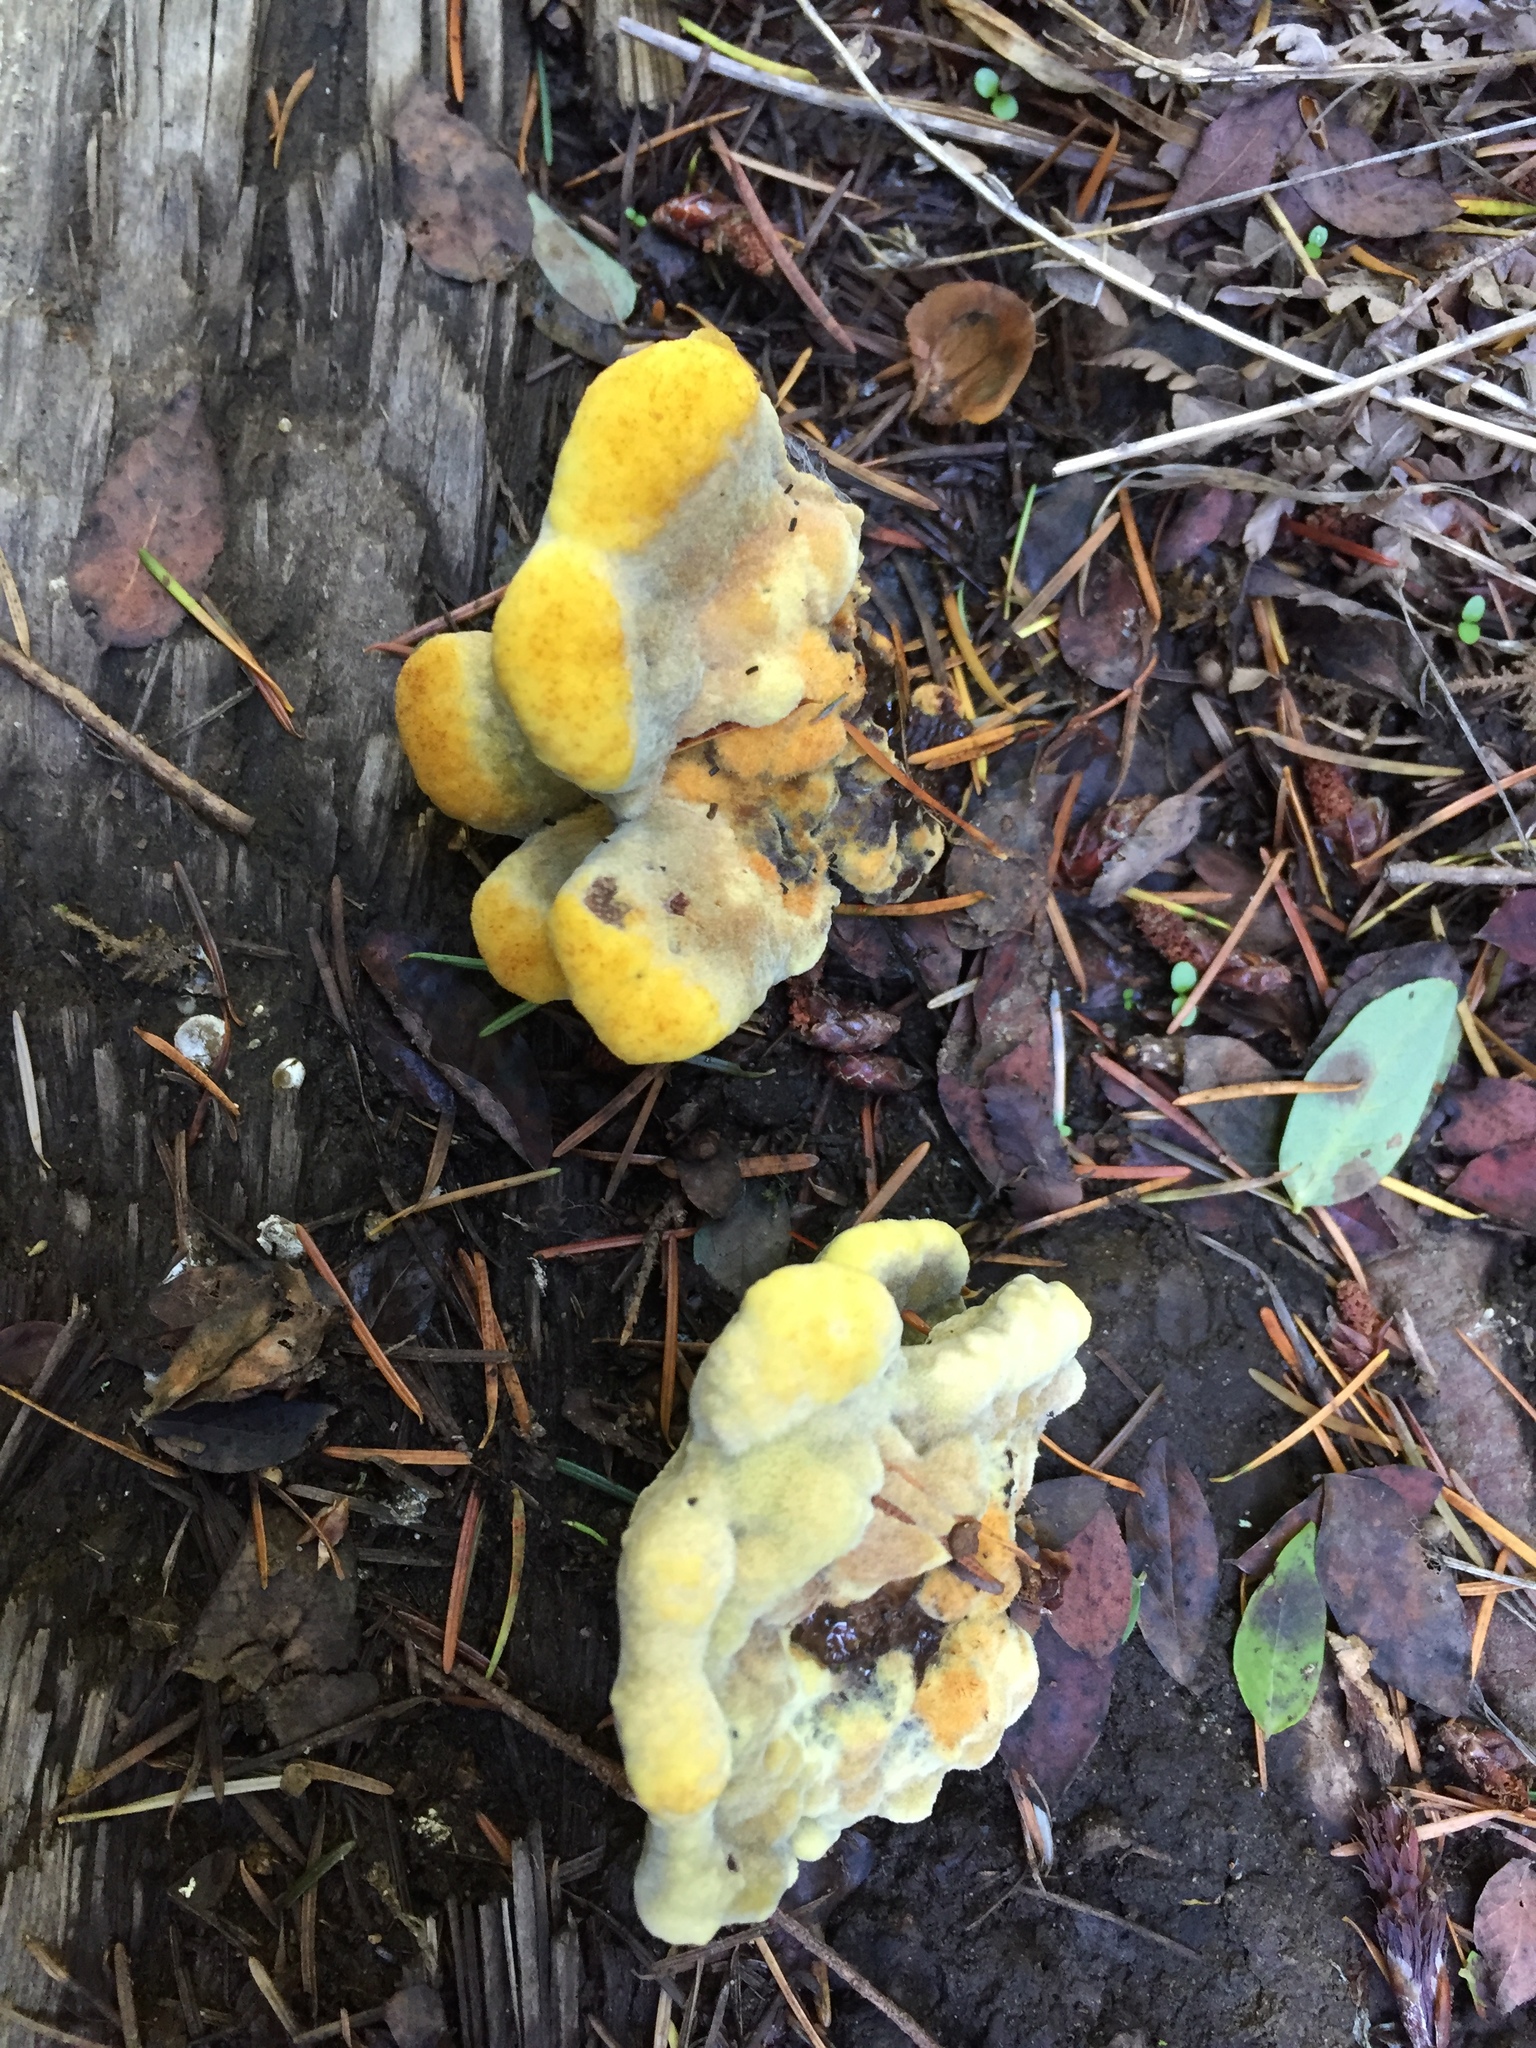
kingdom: Fungi
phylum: Basidiomycota
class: Agaricomycetes
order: Polyporales
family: Laetiporaceae
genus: Phaeolus
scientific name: Phaeolus schweinitzii
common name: Dyer's mazegill
